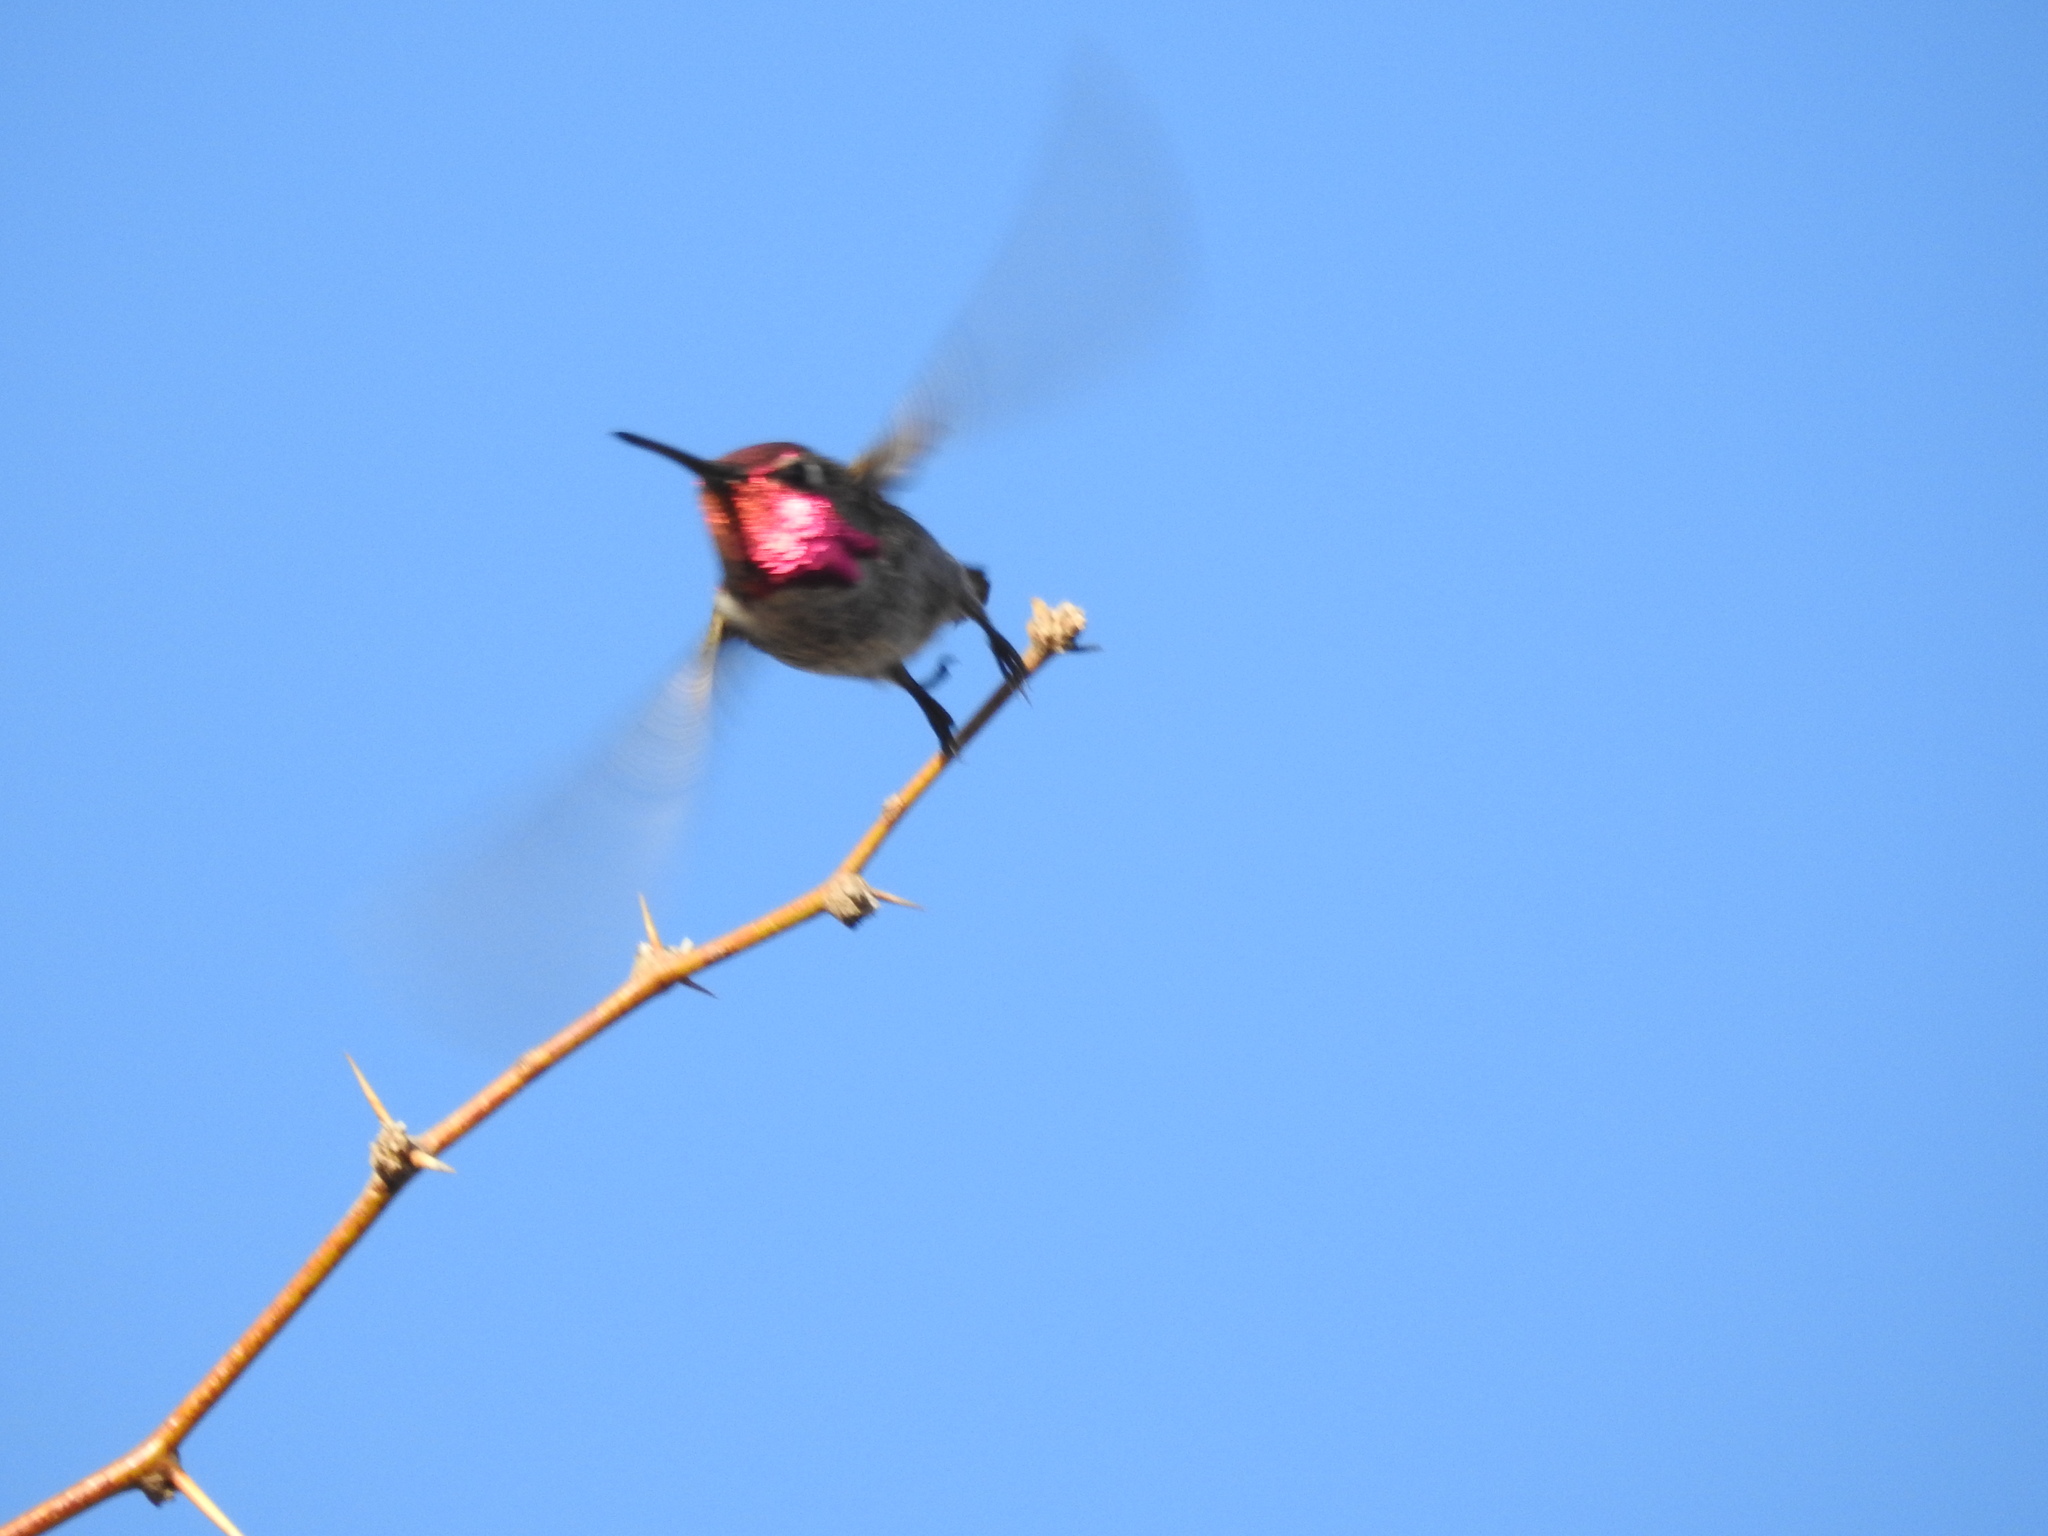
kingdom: Animalia
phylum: Chordata
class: Aves
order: Apodiformes
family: Trochilidae
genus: Calypte
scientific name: Calypte anna
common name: Anna's hummingbird
